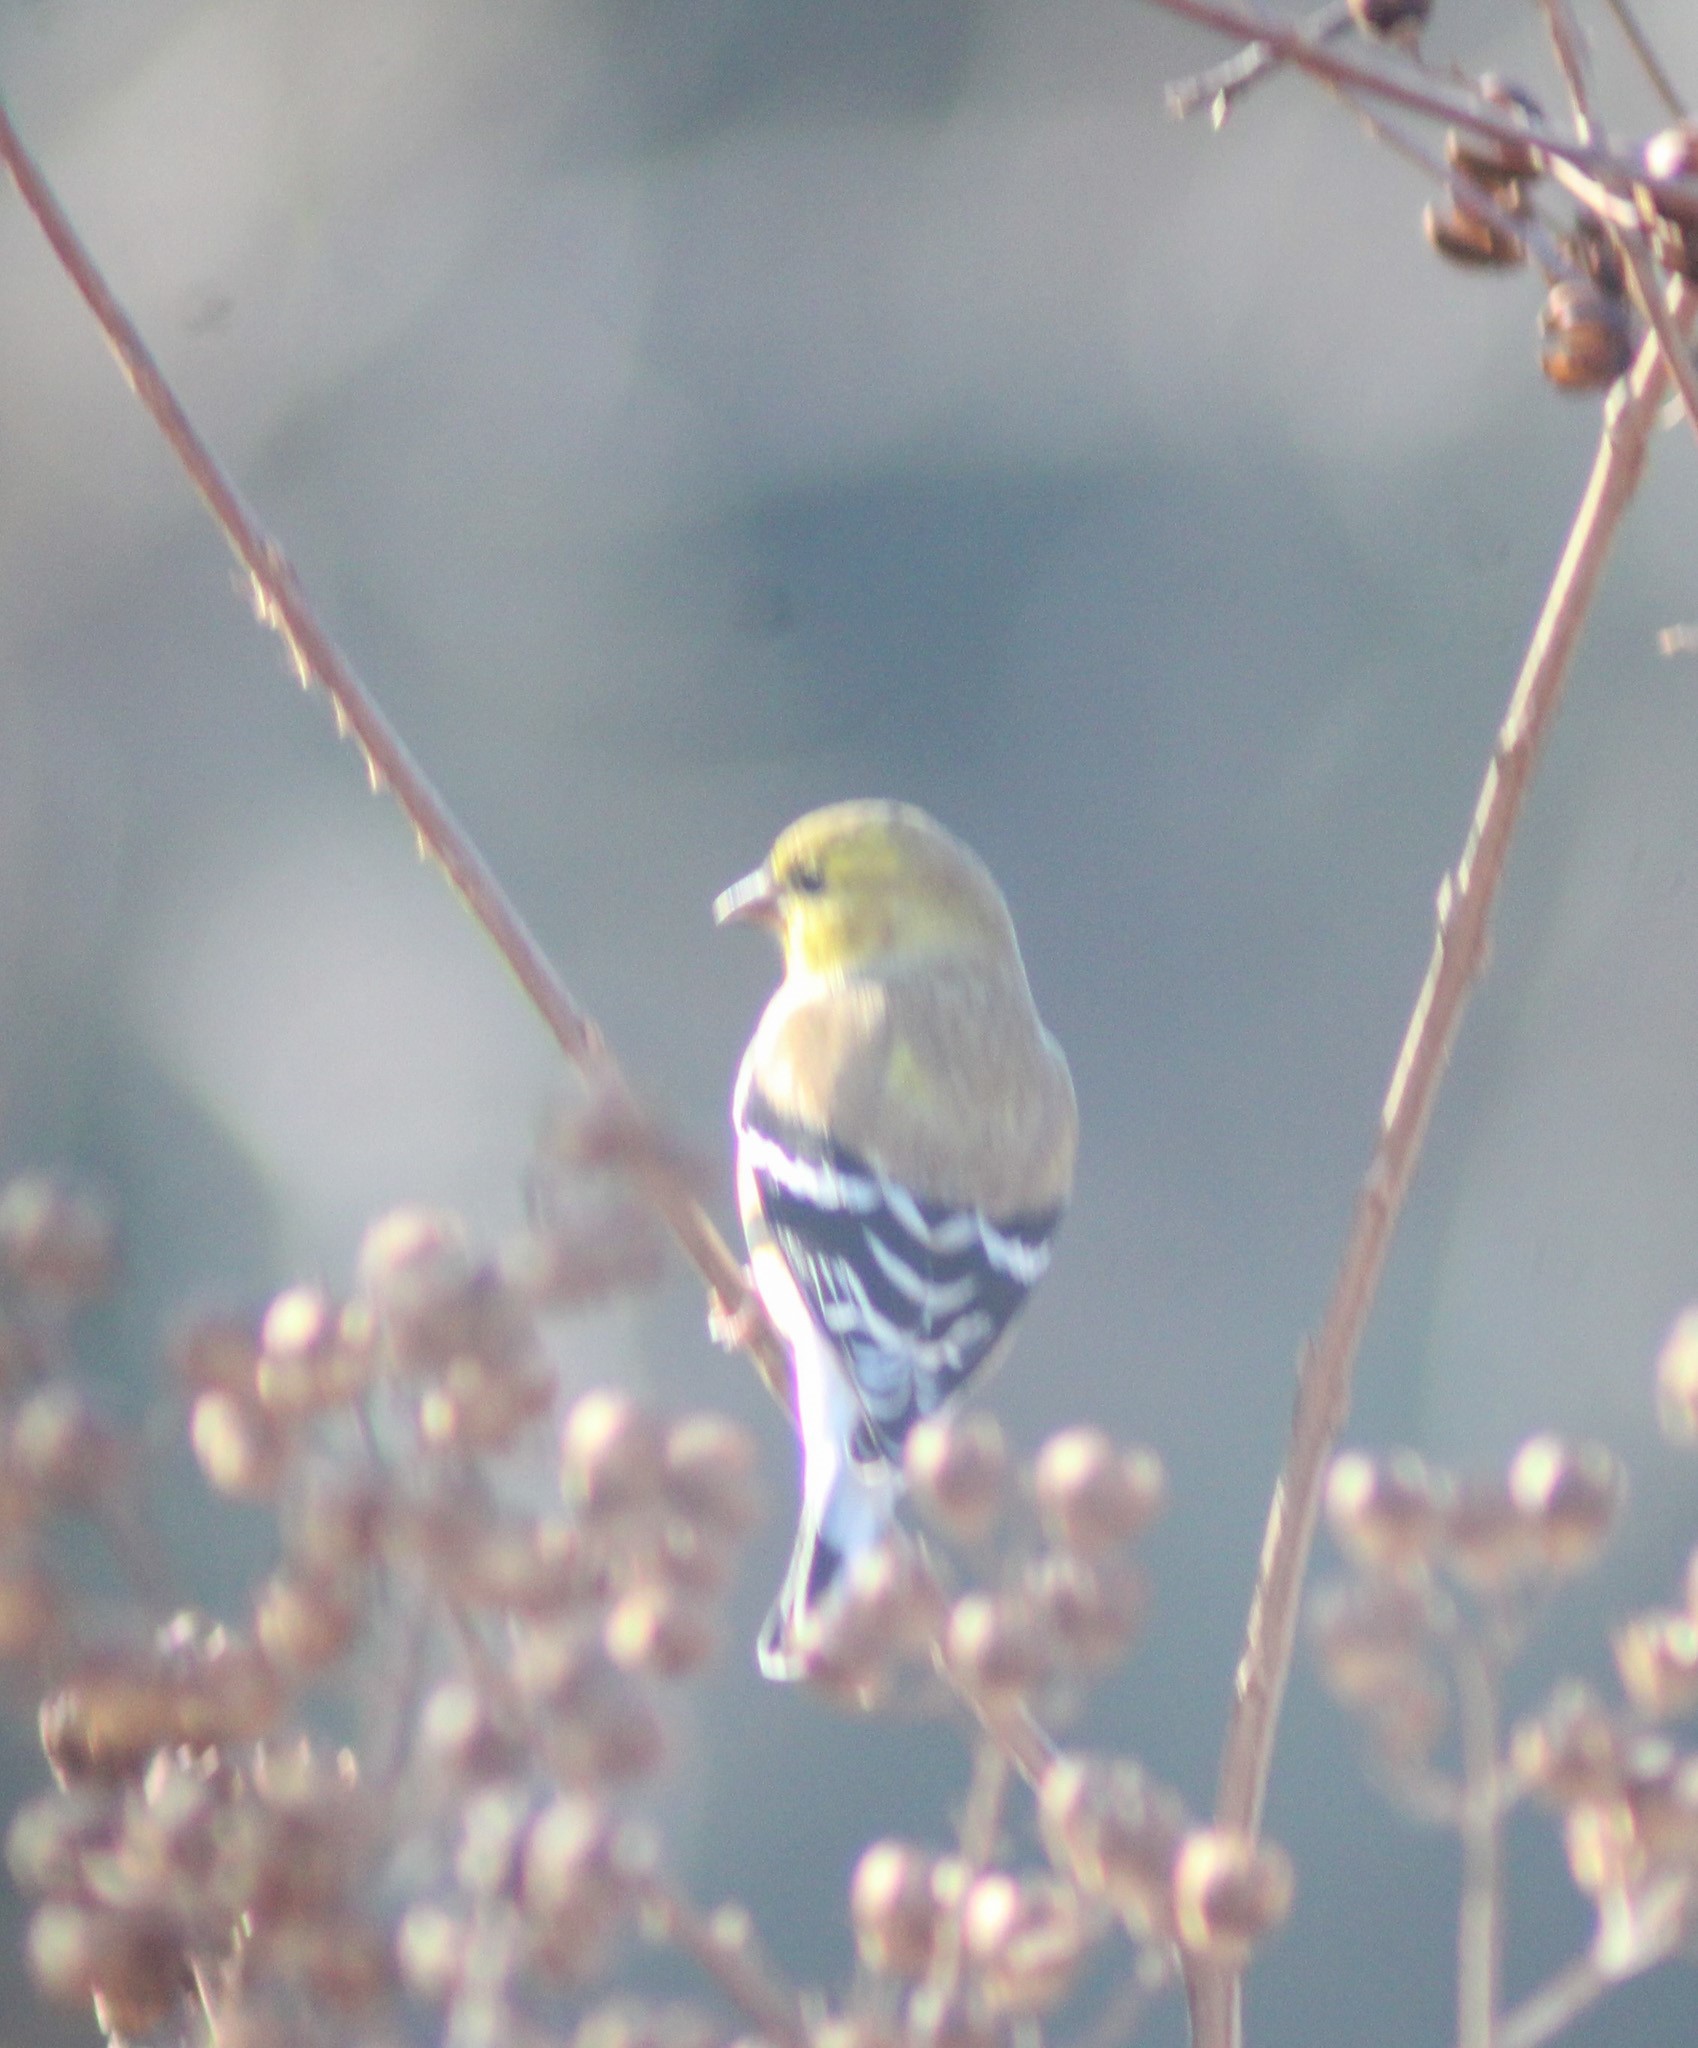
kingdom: Animalia
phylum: Chordata
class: Aves
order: Passeriformes
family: Fringillidae
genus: Spinus
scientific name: Spinus tristis
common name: American goldfinch
